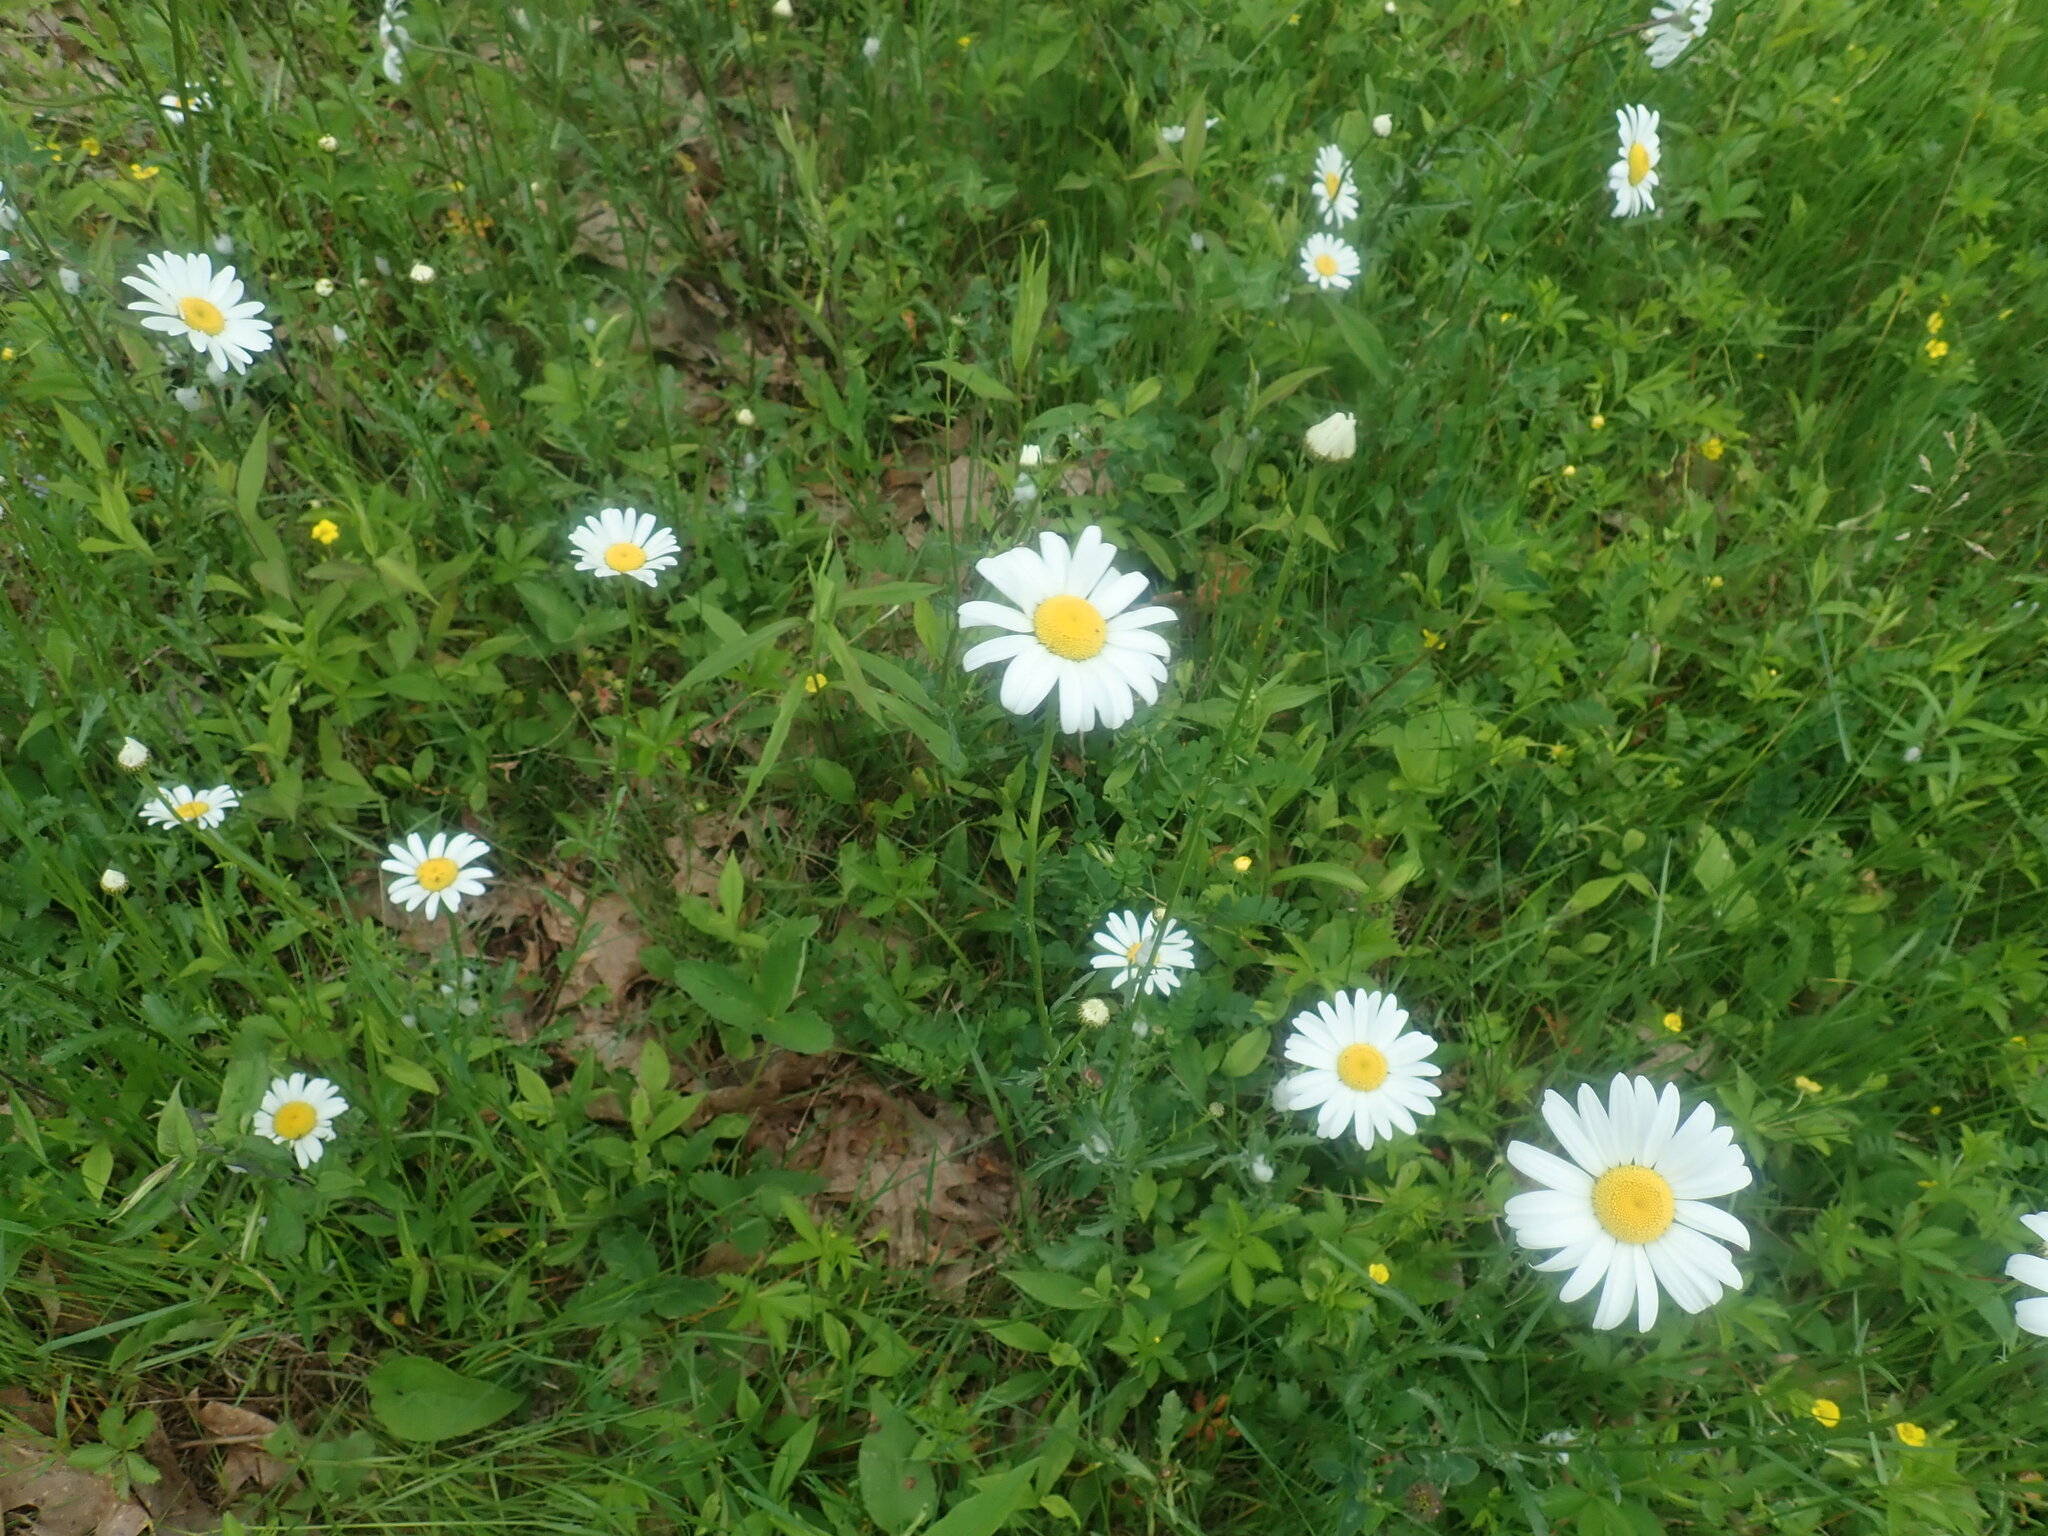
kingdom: Plantae
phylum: Tracheophyta
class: Magnoliopsida
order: Asterales
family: Asteraceae
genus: Leucanthemum
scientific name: Leucanthemum vulgare
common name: Oxeye daisy
